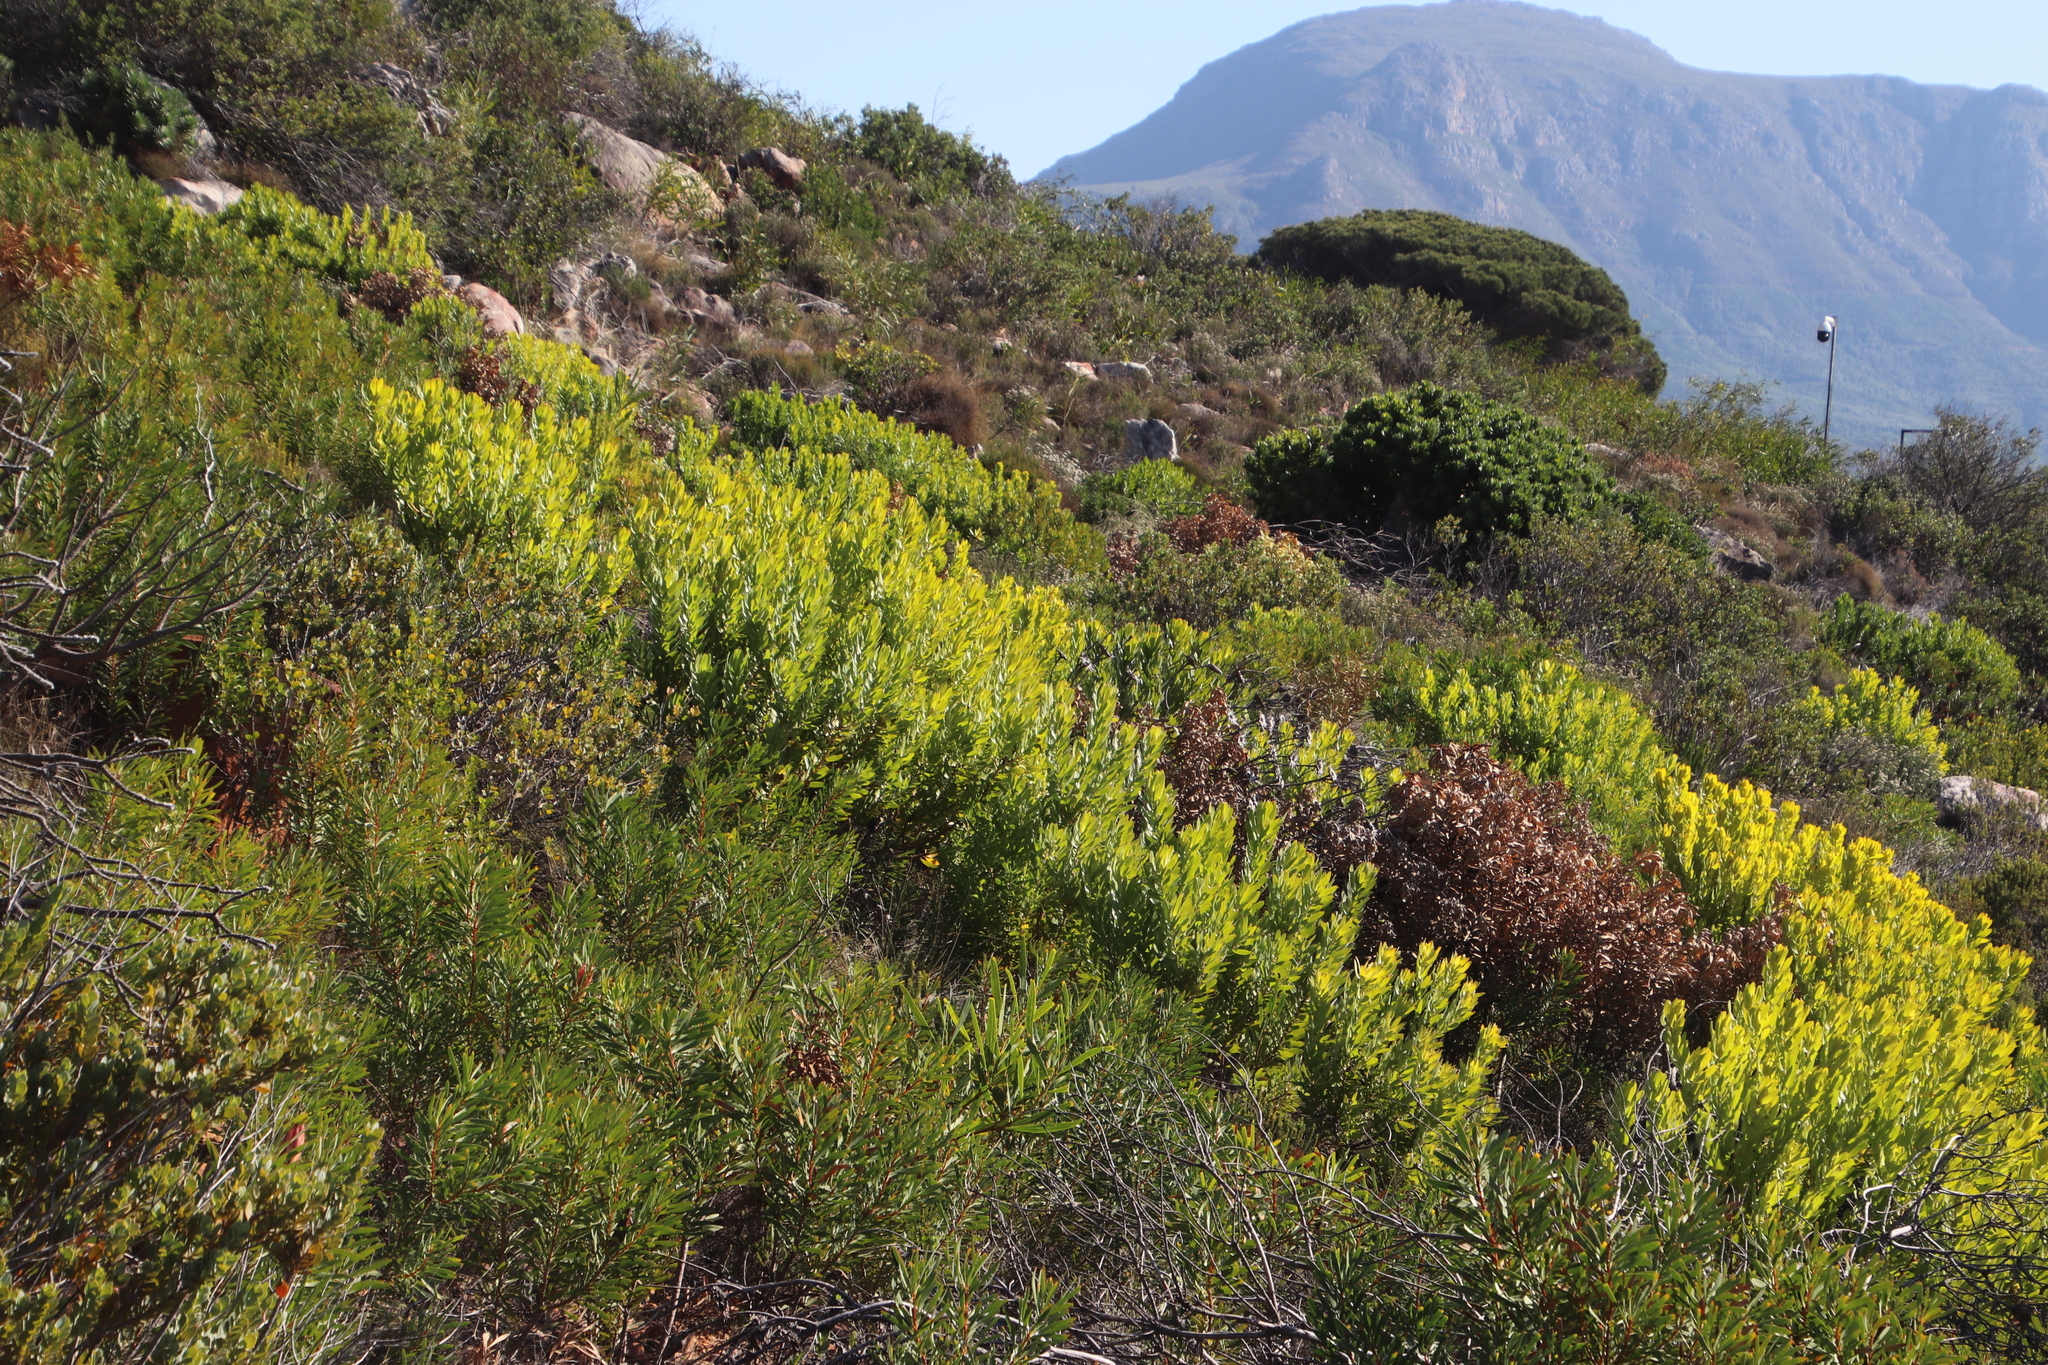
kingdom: Plantae
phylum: Tracheophyta
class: Magnoliopsida
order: Proteales
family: Proteaceae
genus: Leucadendron
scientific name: Leucadendron laureolum
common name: Golden sunshinebush
